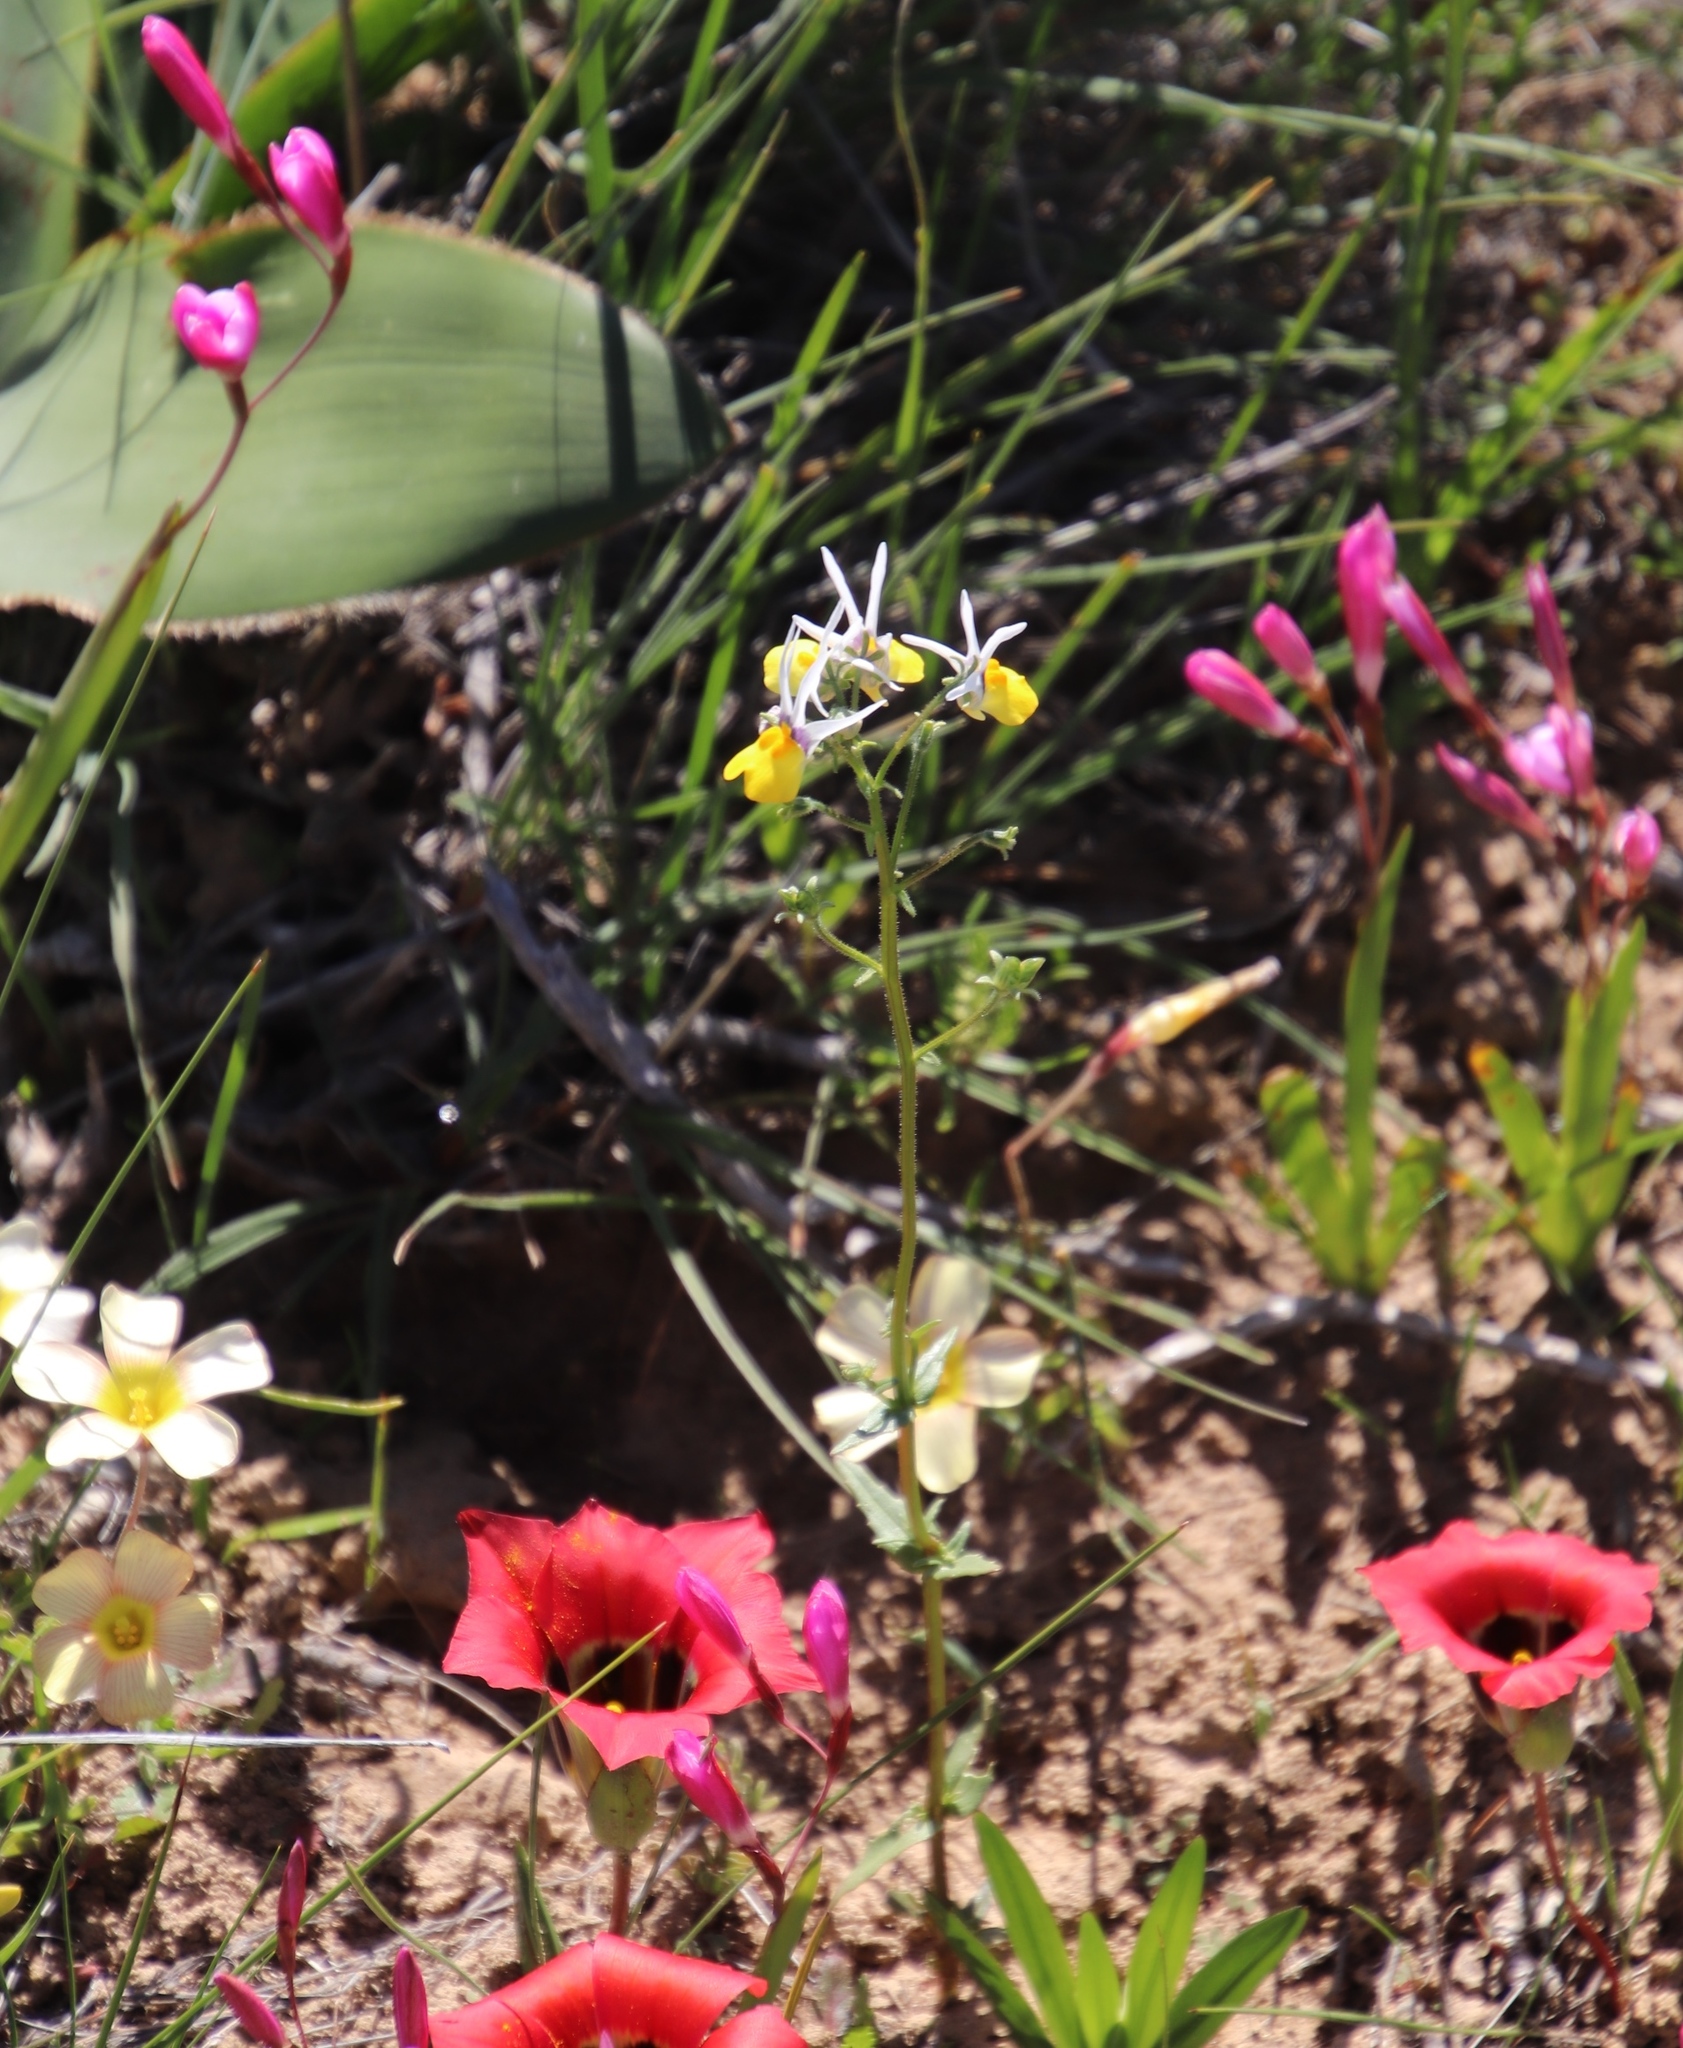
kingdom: Plantae
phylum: Tracheophyta
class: Magnoliopsida
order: Lamiales
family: Scrophulariaceae
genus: Nemesia
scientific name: Nemesia cheiranthus
